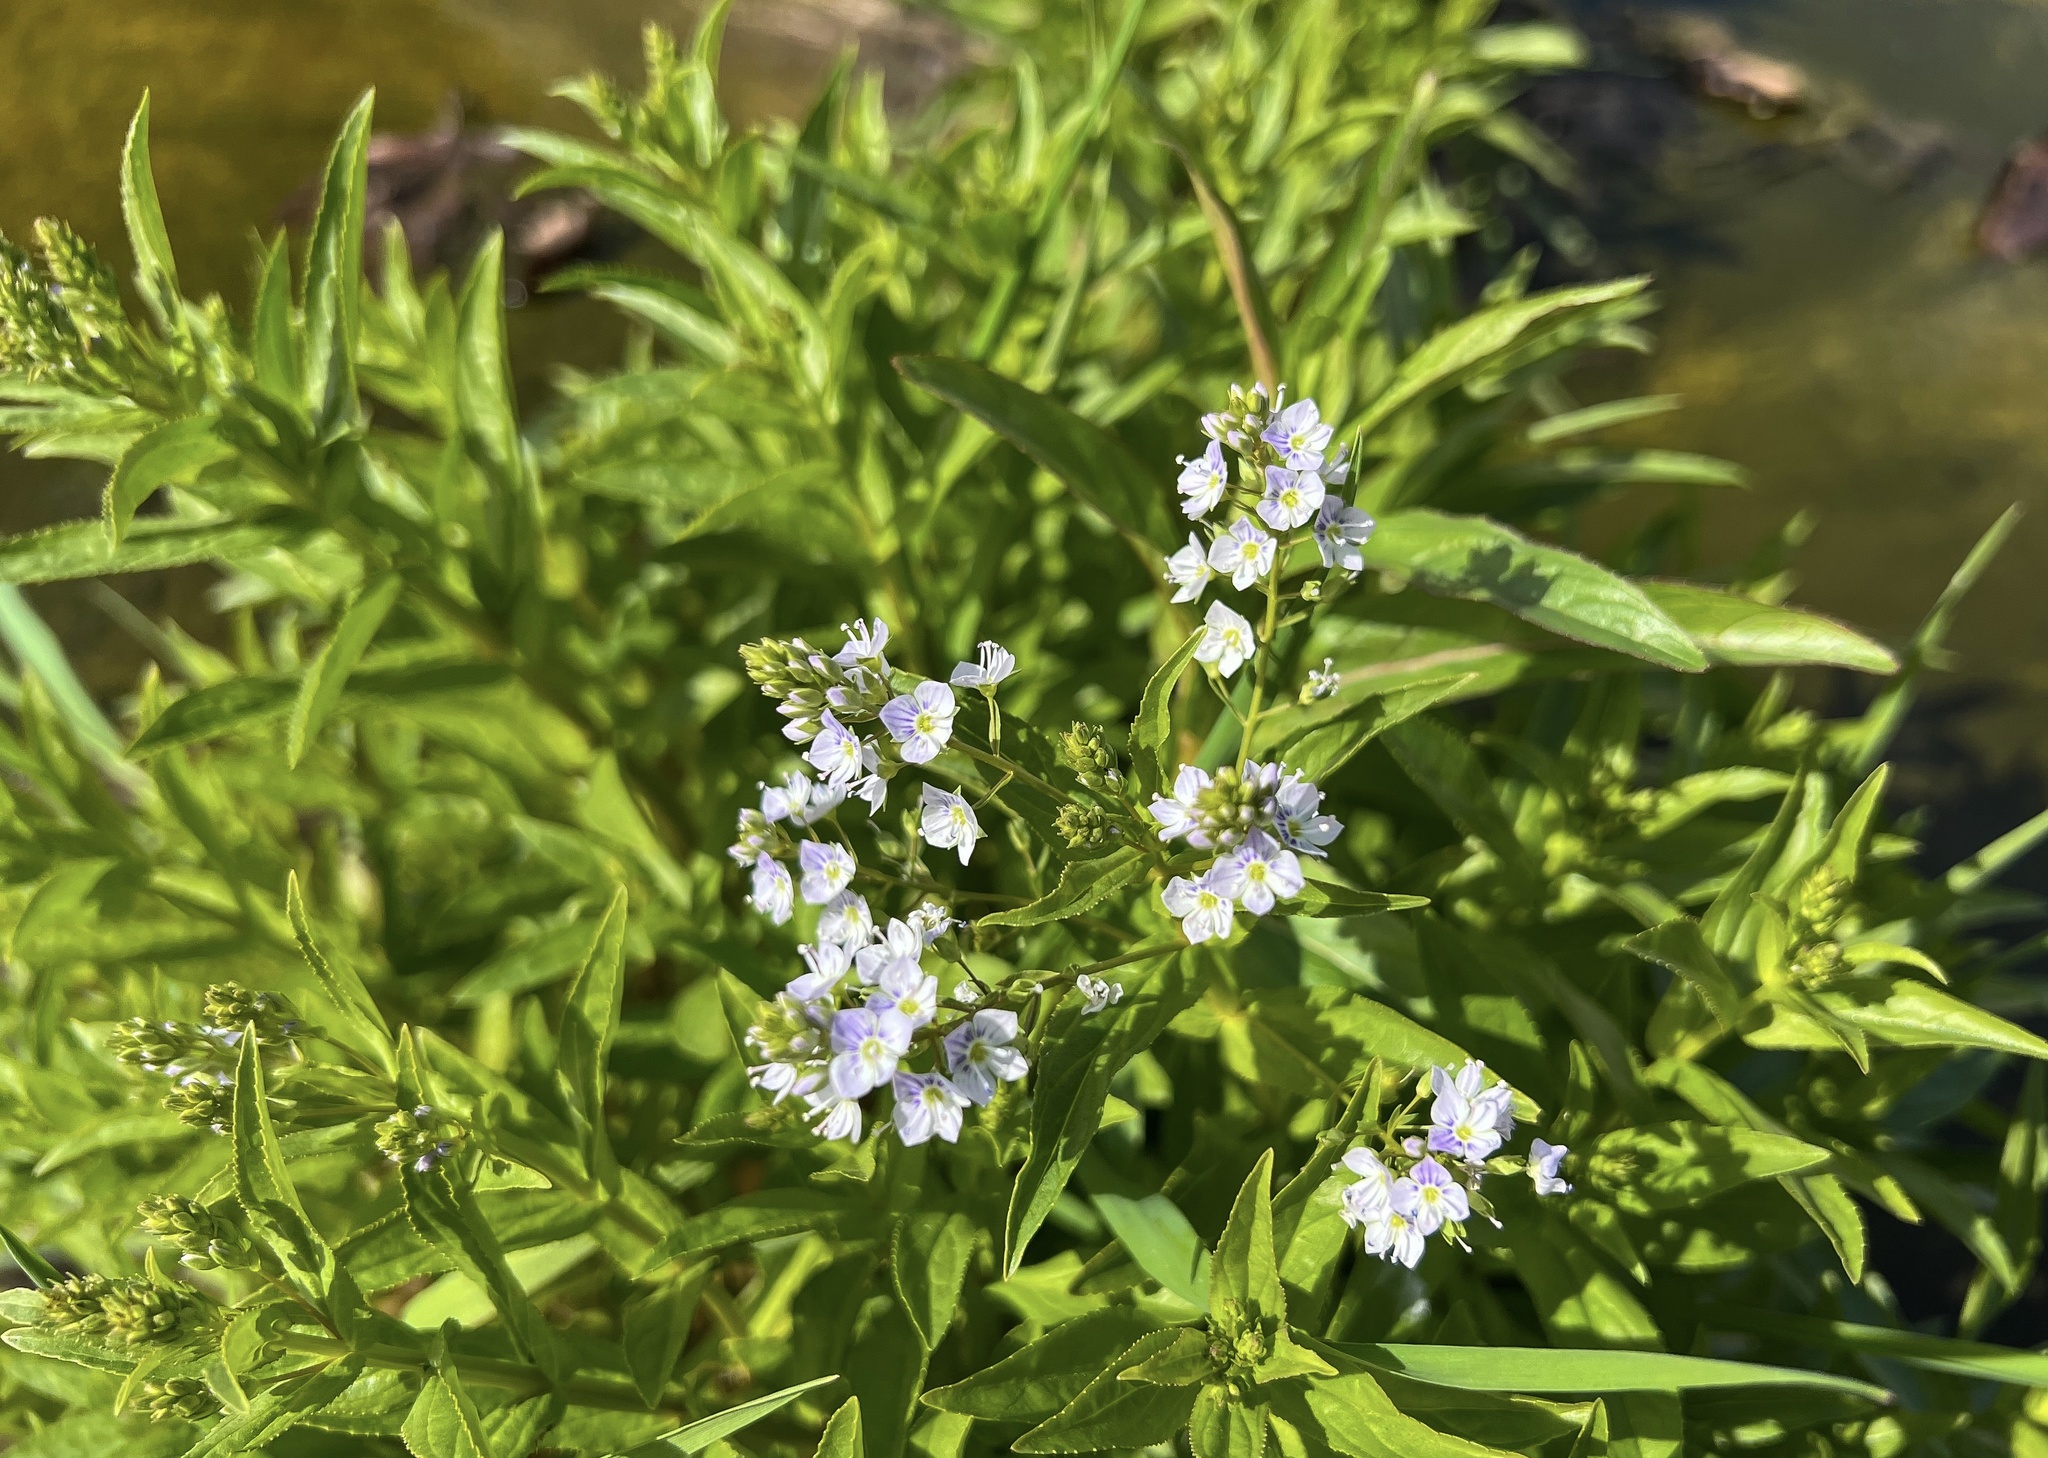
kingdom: Plantae
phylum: Tracheophyta
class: Magnoliopsida
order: Lamiales
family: Plantaginaceae
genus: Veronica
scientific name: Veronica anagallis-aquatica
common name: Water speedwell
